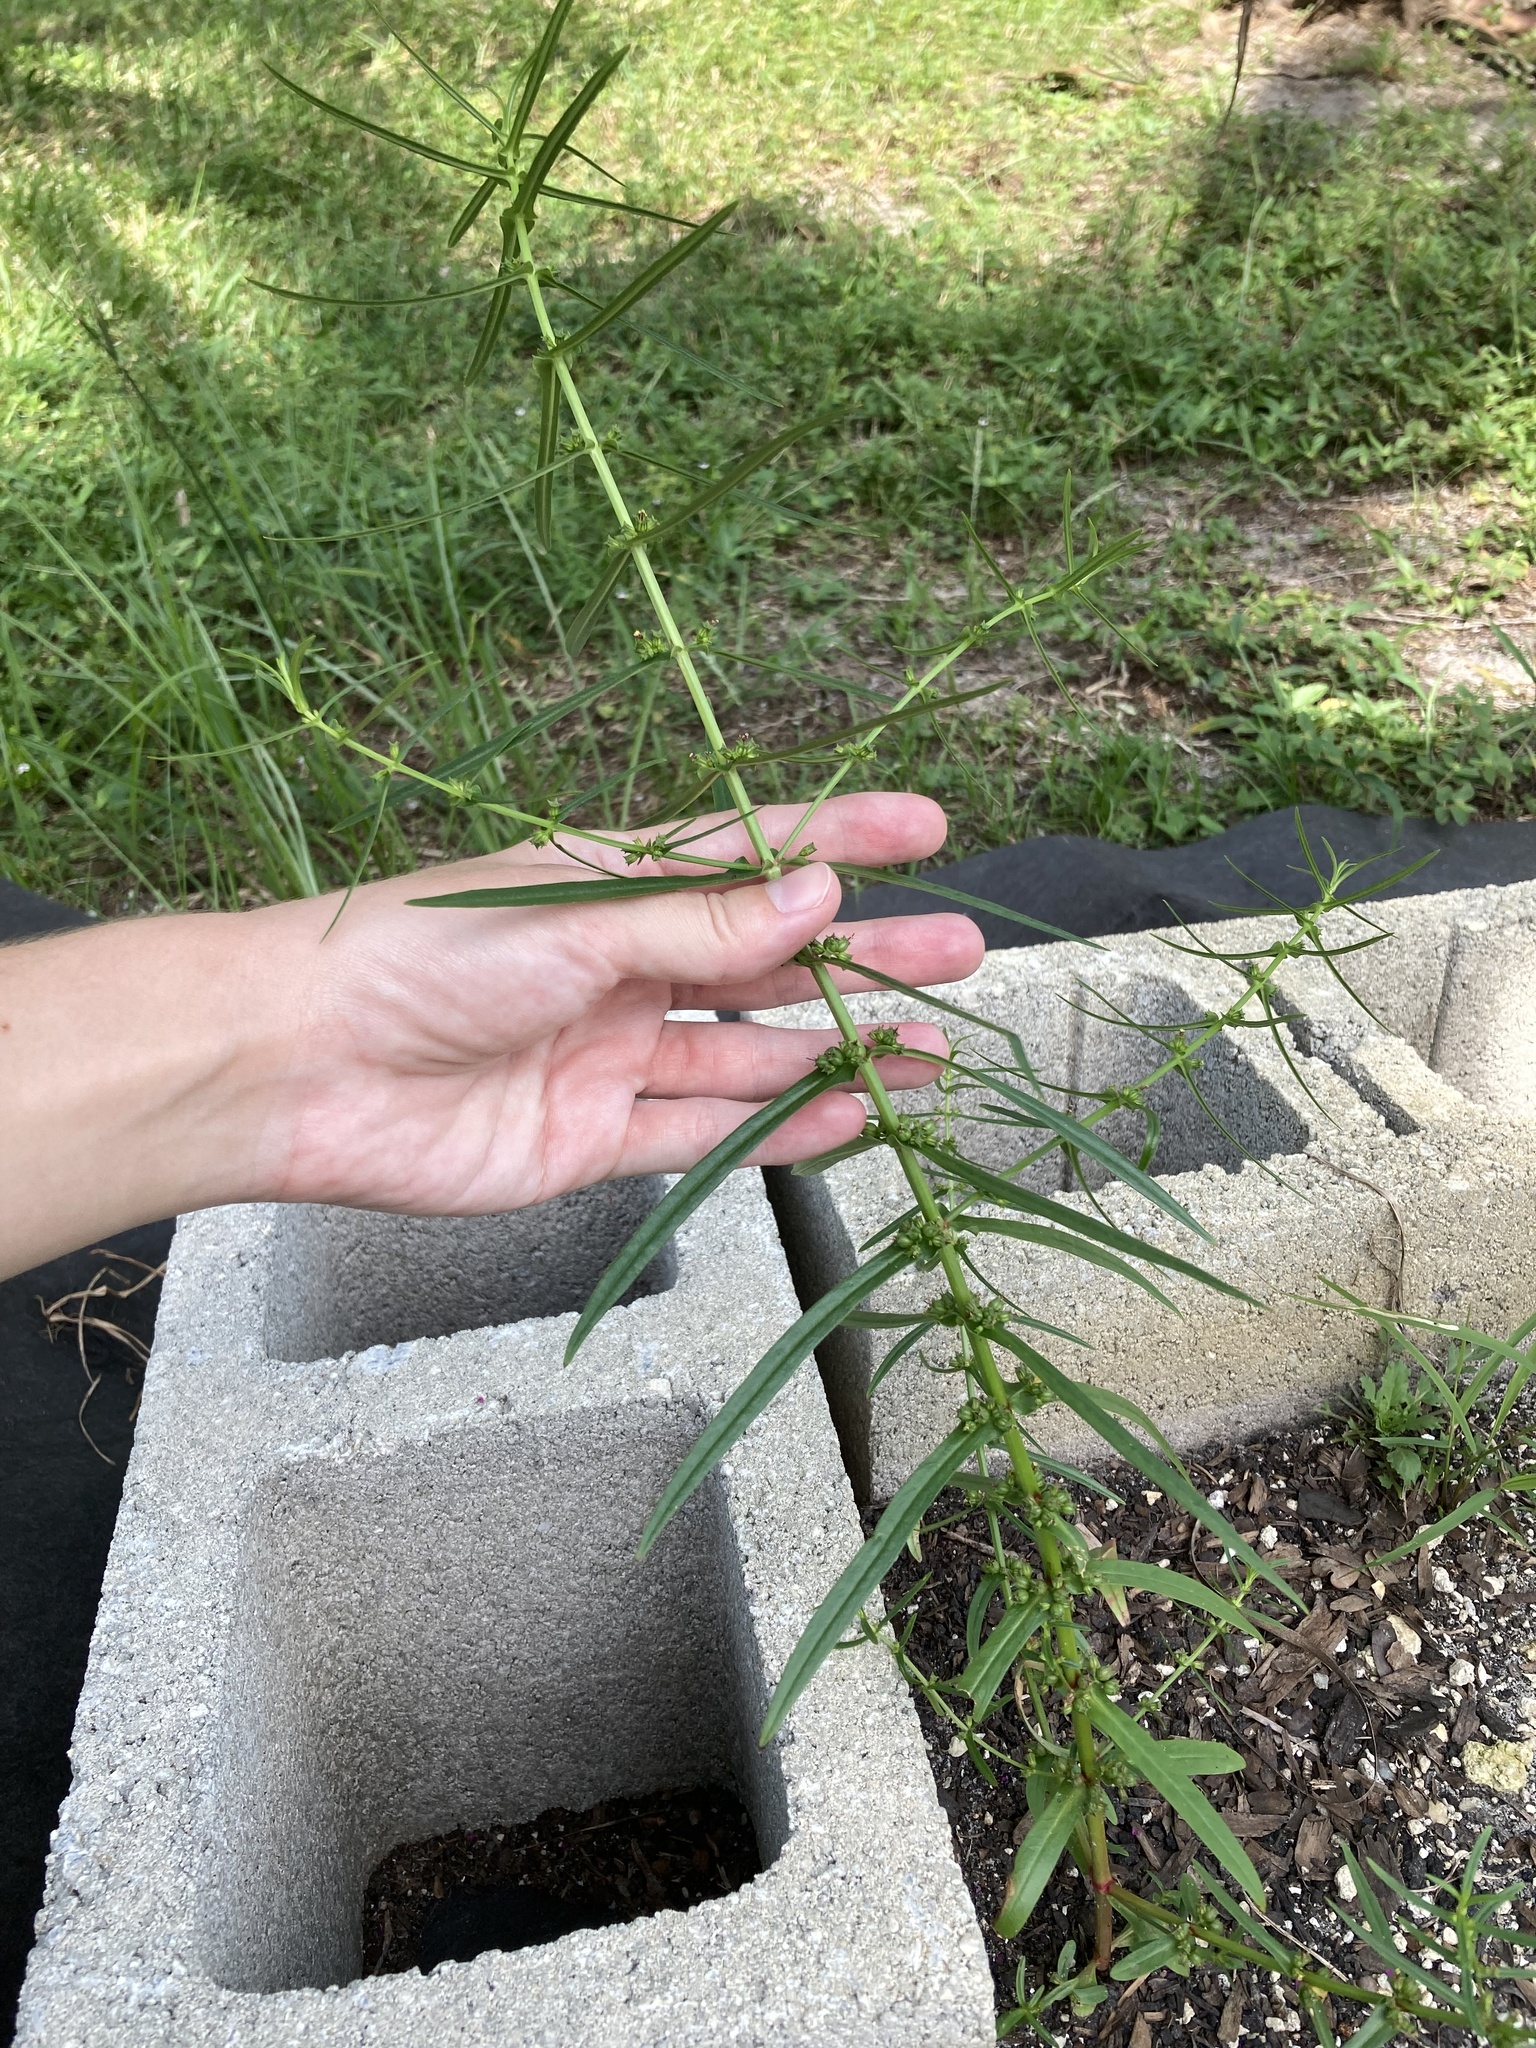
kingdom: Plantae
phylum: Tracheophyta
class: Magnoliopsida
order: Myrtales
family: Lythraceae
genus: Ammannia
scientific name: Ammannia coccinea
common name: Valley redstem
